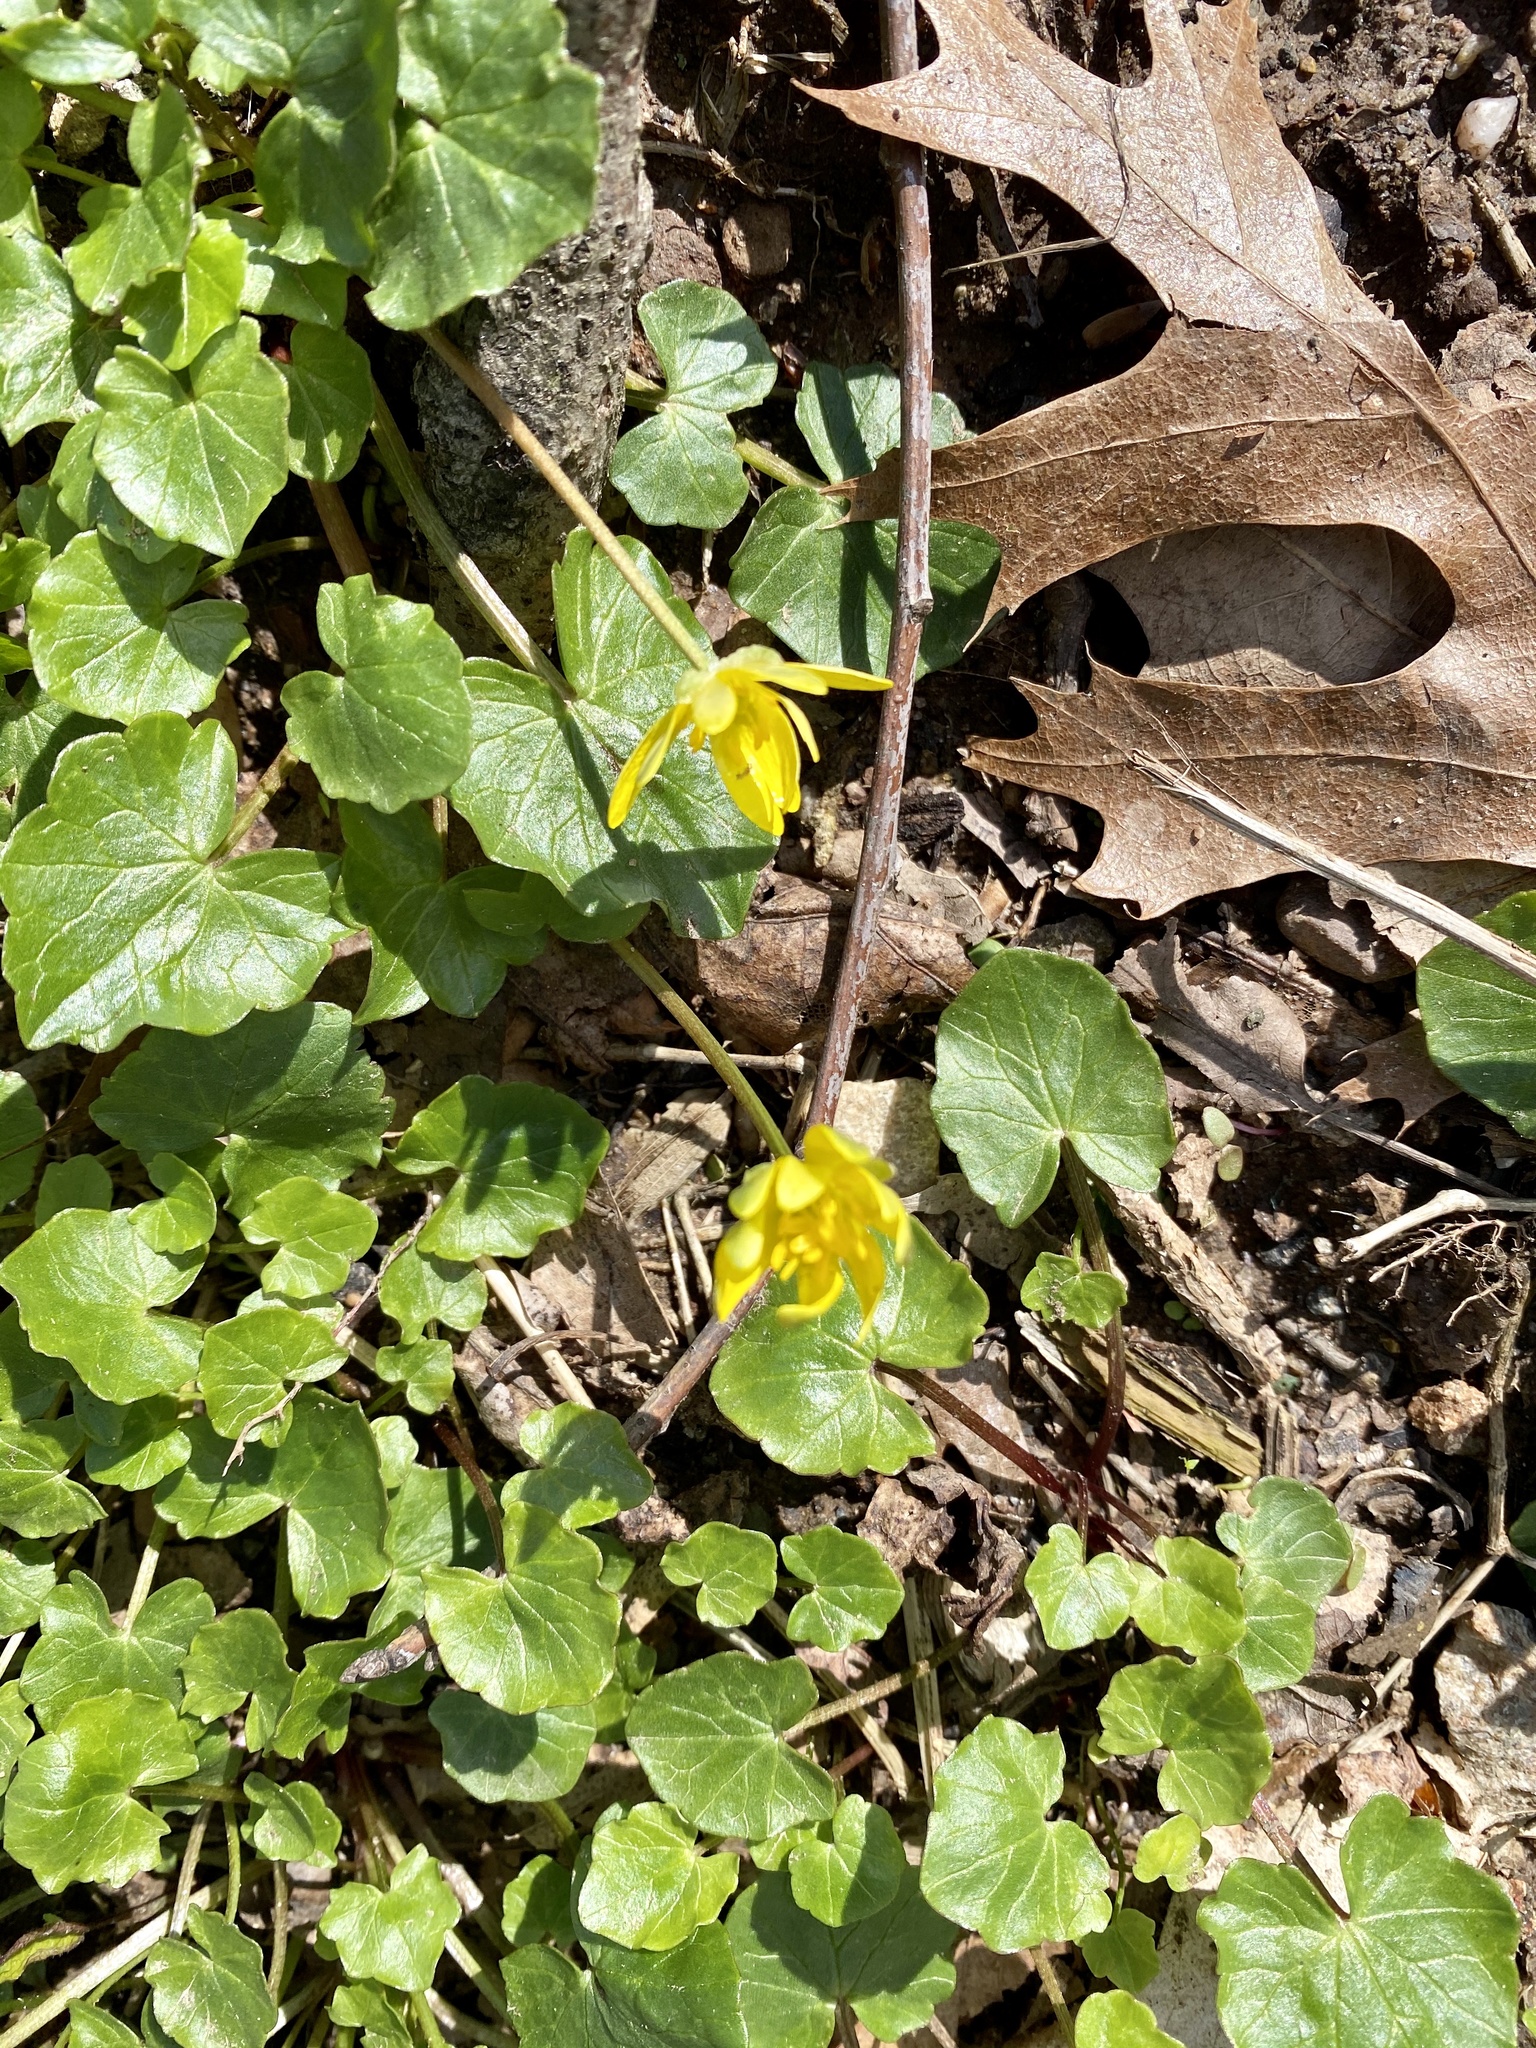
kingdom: Plantae
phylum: Tracheophyta
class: Magnoliopsida
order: Ranunculales
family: Ranunculaceae
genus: Ficaria
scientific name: Ficaria verna
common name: Lesser celandine
